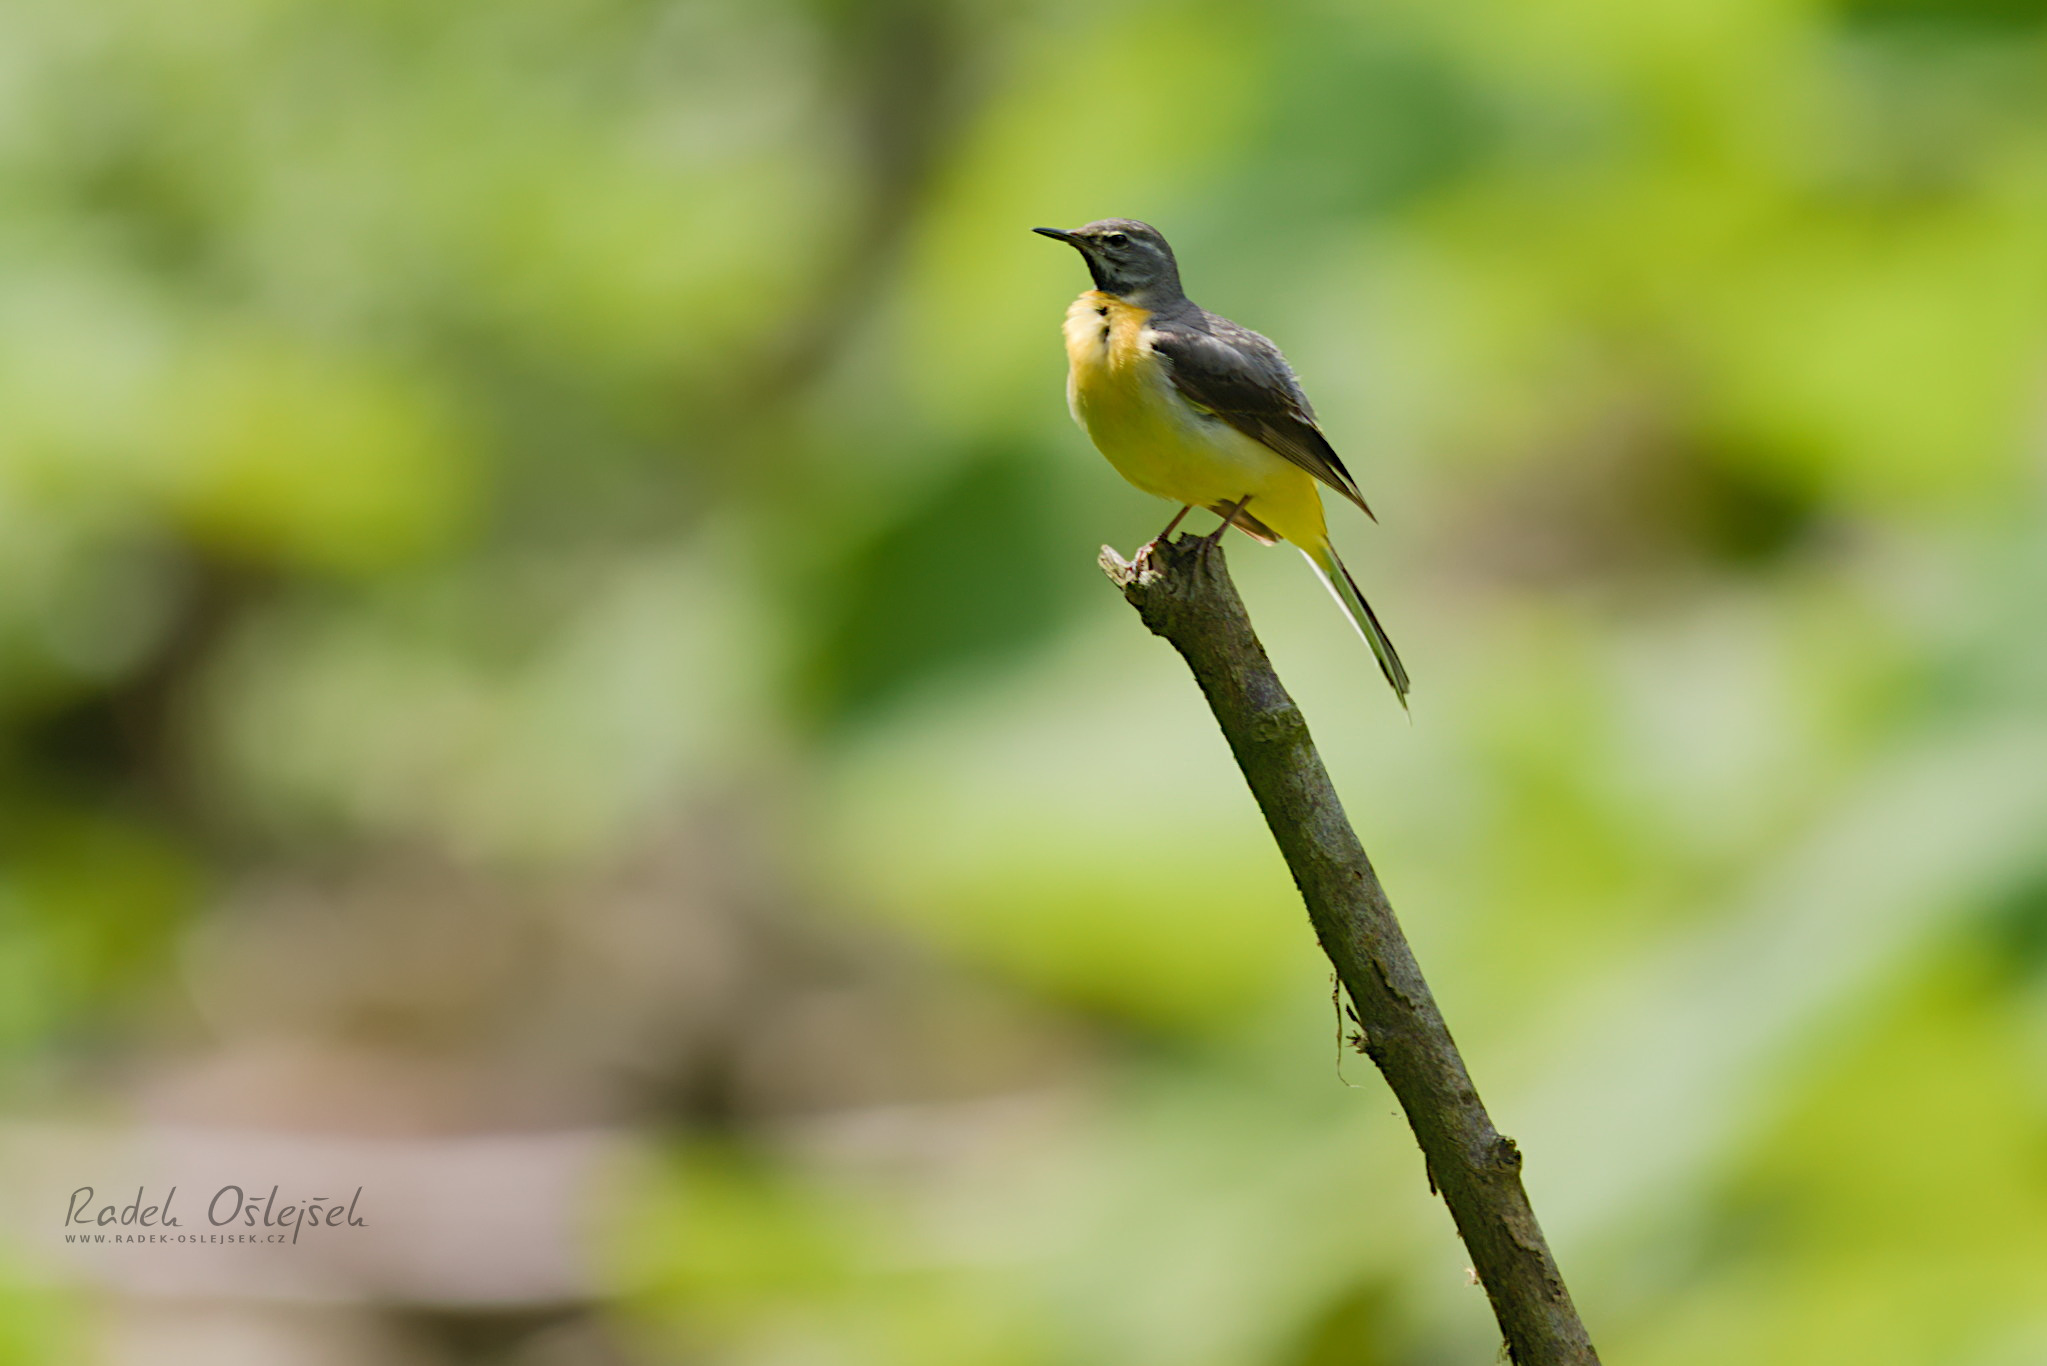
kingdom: Animalia
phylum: Chordata
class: Aves
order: Passeriformes
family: Motacillidae
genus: Motacilla
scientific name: Motacilla cinerea
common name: Grey wagtail
